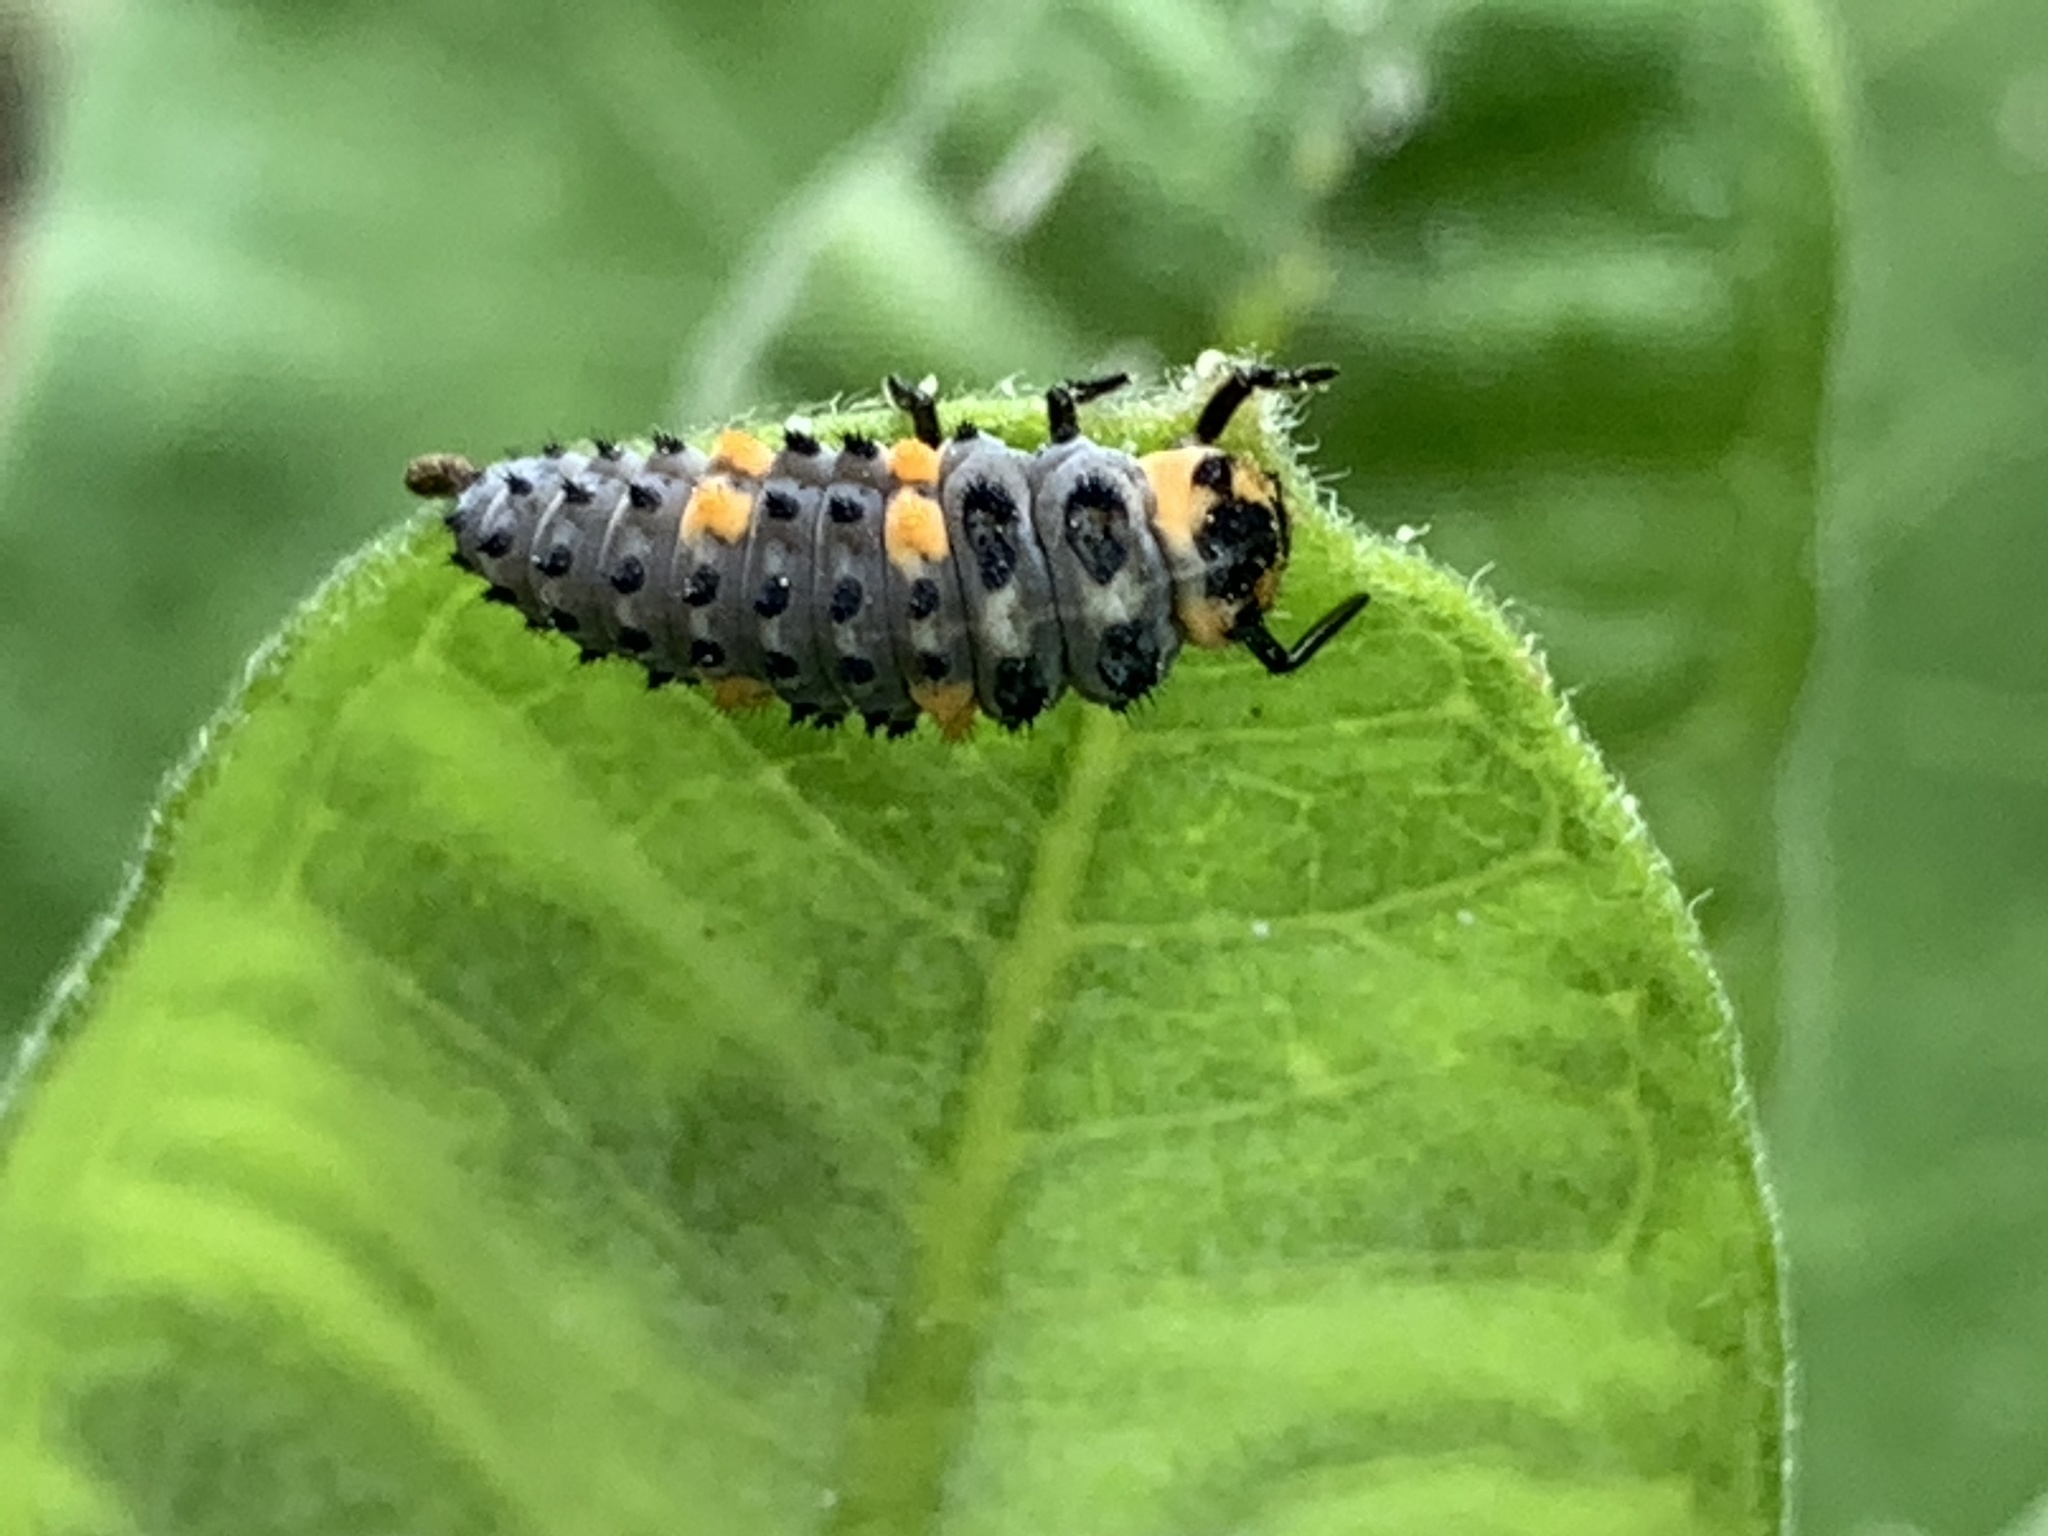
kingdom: Animalia
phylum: Arthropoda
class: Insecta
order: Coleoptera
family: Coccinellidae
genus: Coccinella
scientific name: Coccinella septempunctata
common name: Sevenspotted lady beetle
